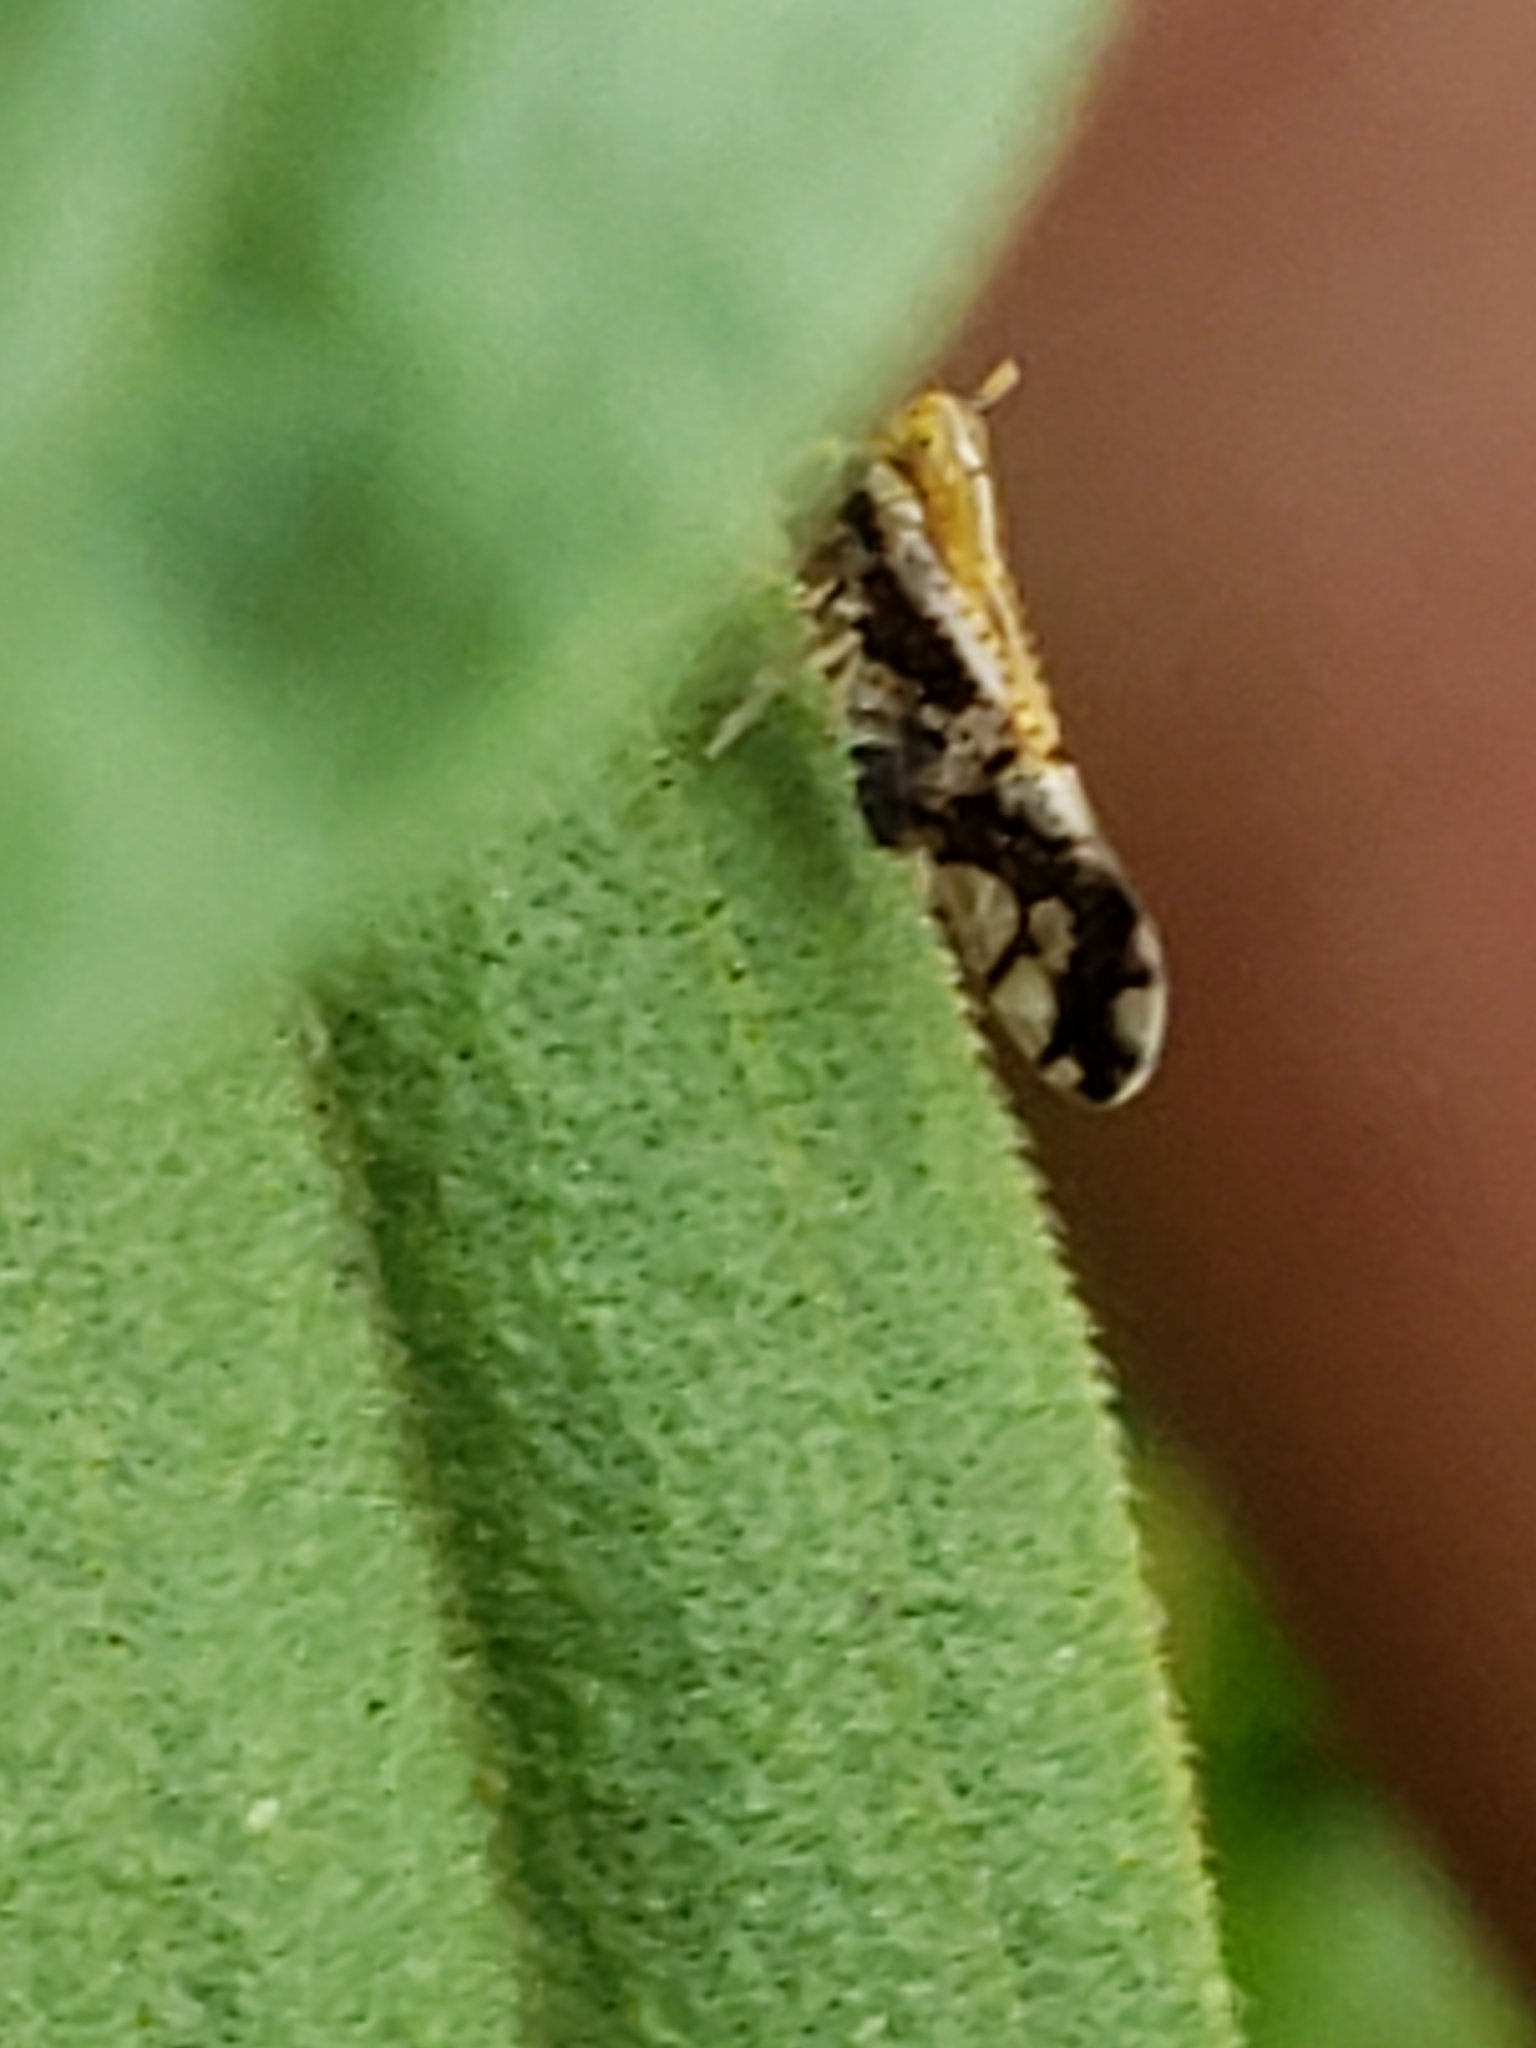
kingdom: Animalia
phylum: Arthropoda
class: Insecta
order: Hemiptera
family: Delphacidae
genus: Liburniella
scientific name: Liburniella ornata
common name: Ornate planthopper
